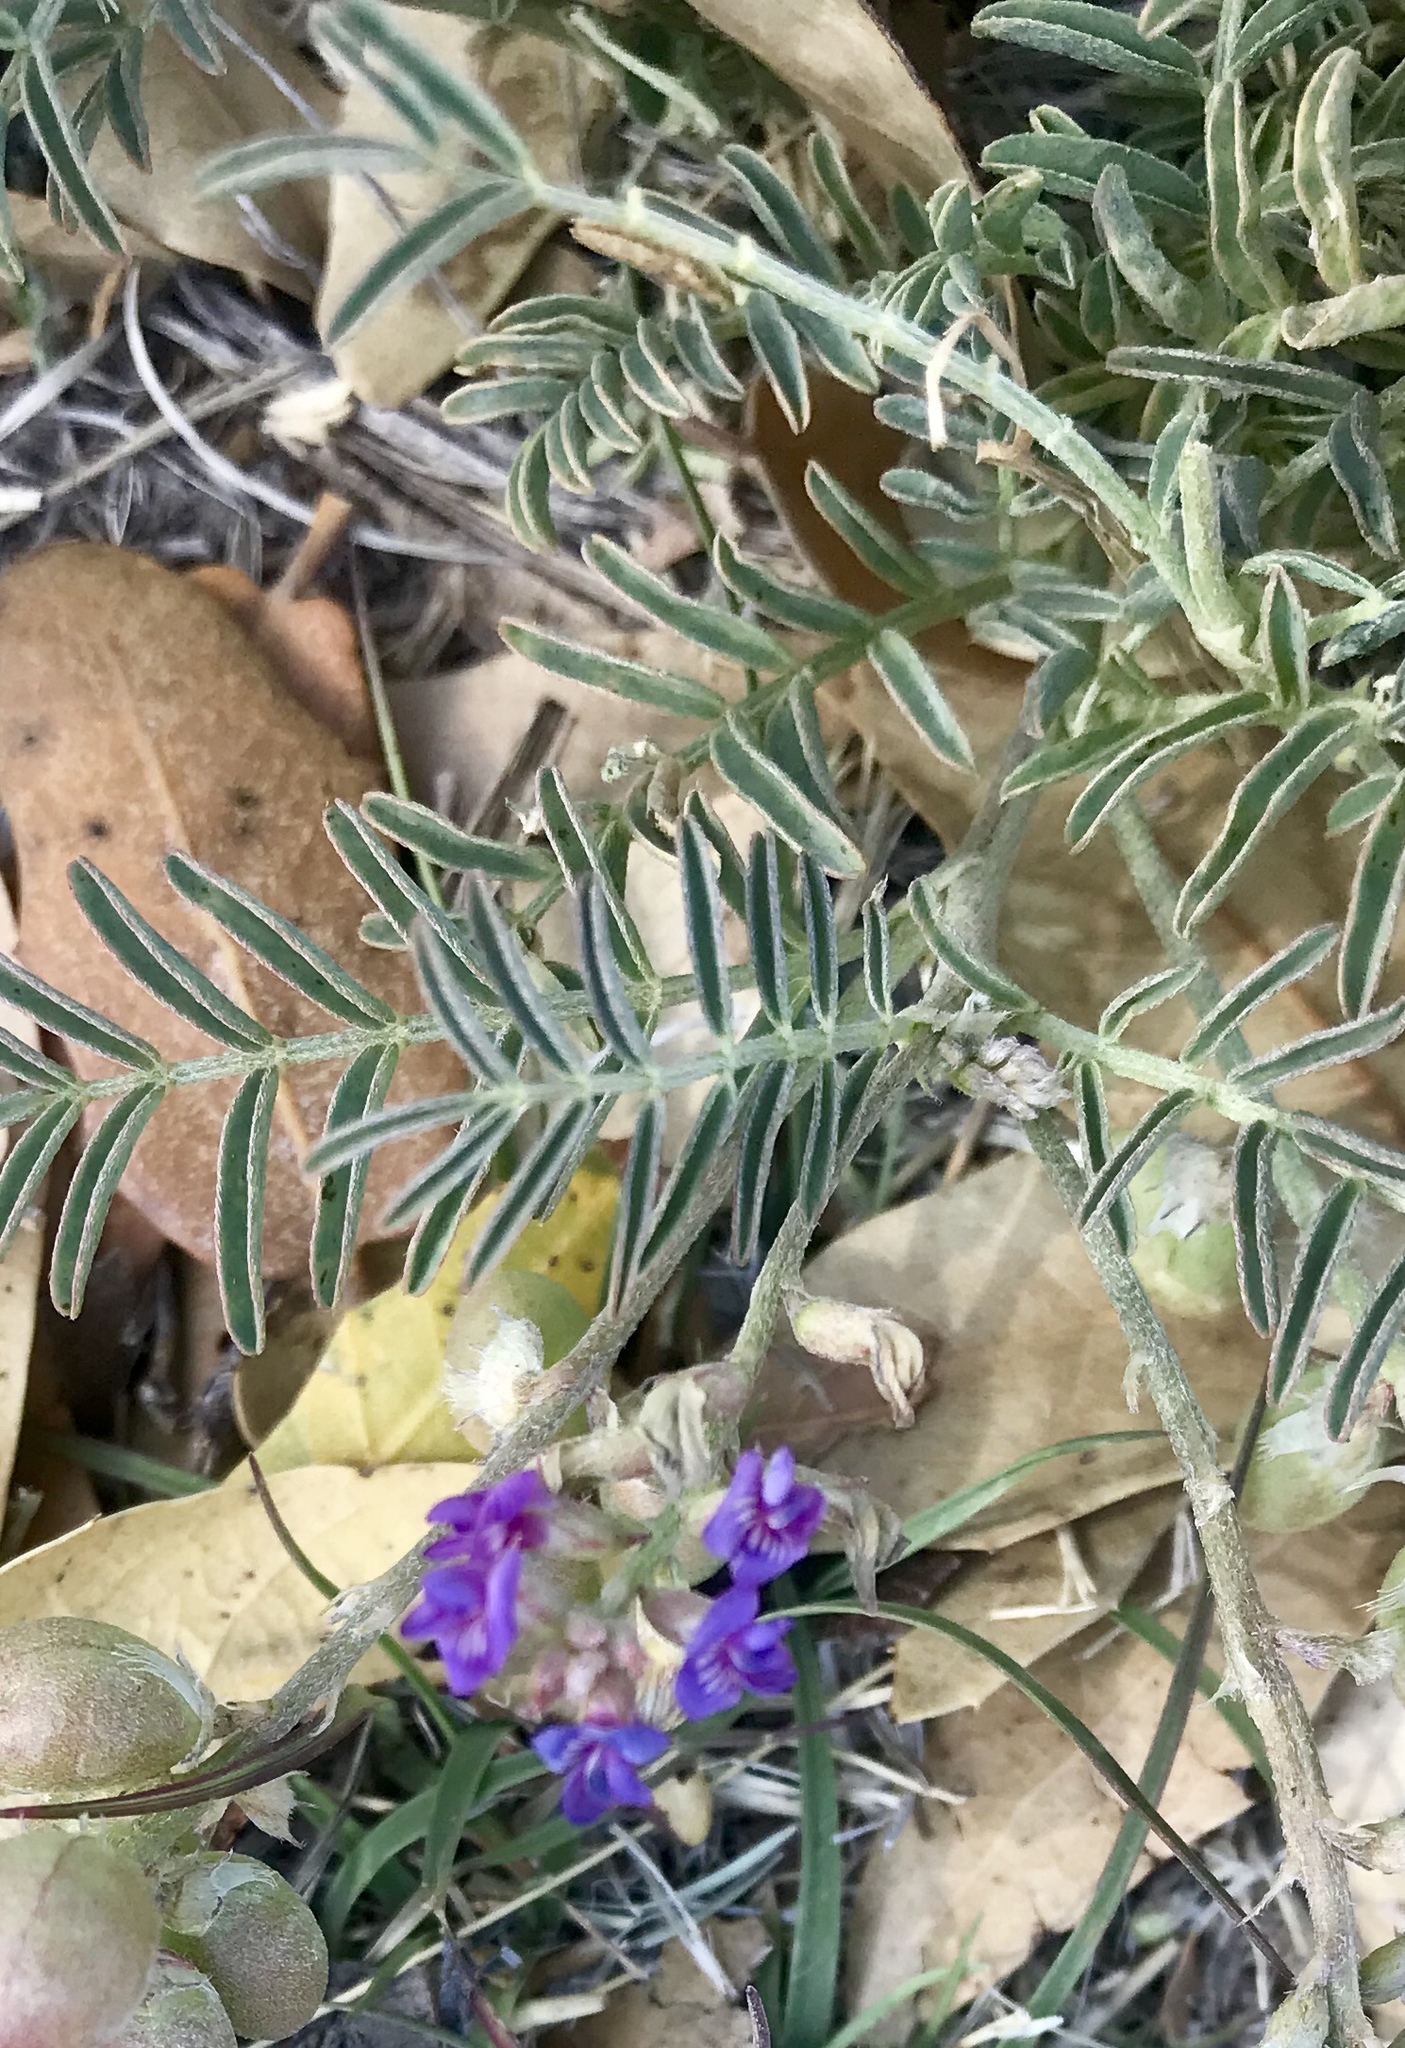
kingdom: Plantae
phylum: Tracheophyta
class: Magnoliopsida
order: Fabales
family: Fabaceae
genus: Astragalus
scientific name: Astragalus thurberi
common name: Thurber's milk-vetch
